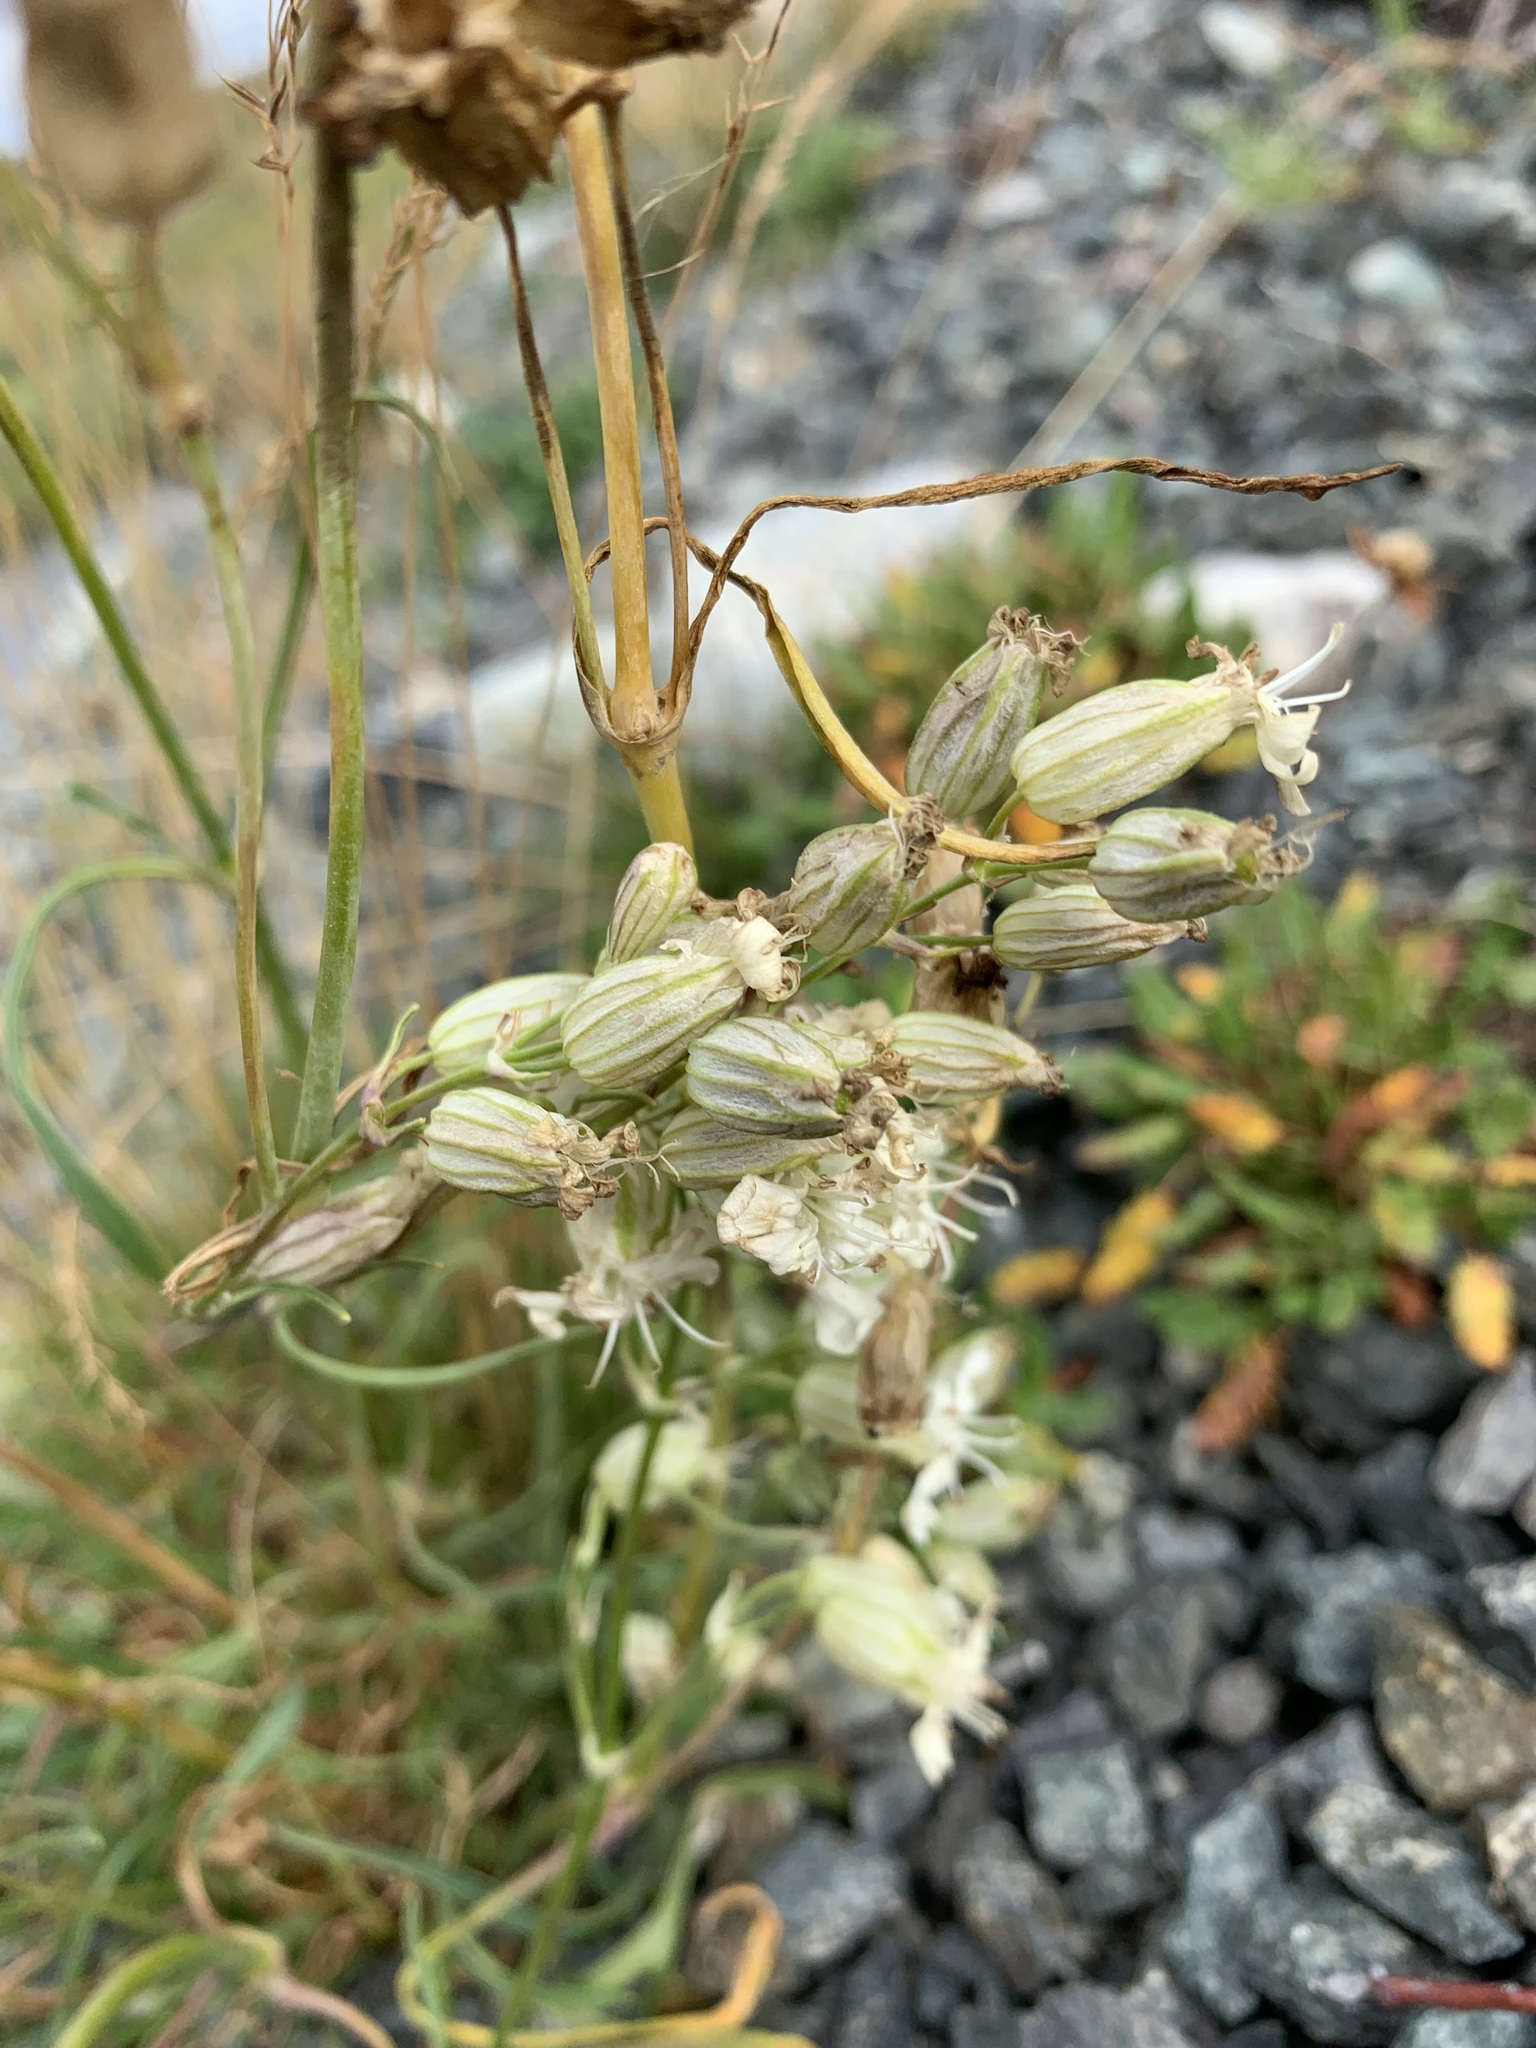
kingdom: Plantae
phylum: Tracheophyta
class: Magnoliopsida
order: Caryophyllales
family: Caryophyllaceae
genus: Silene
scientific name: Silene chamarensis
